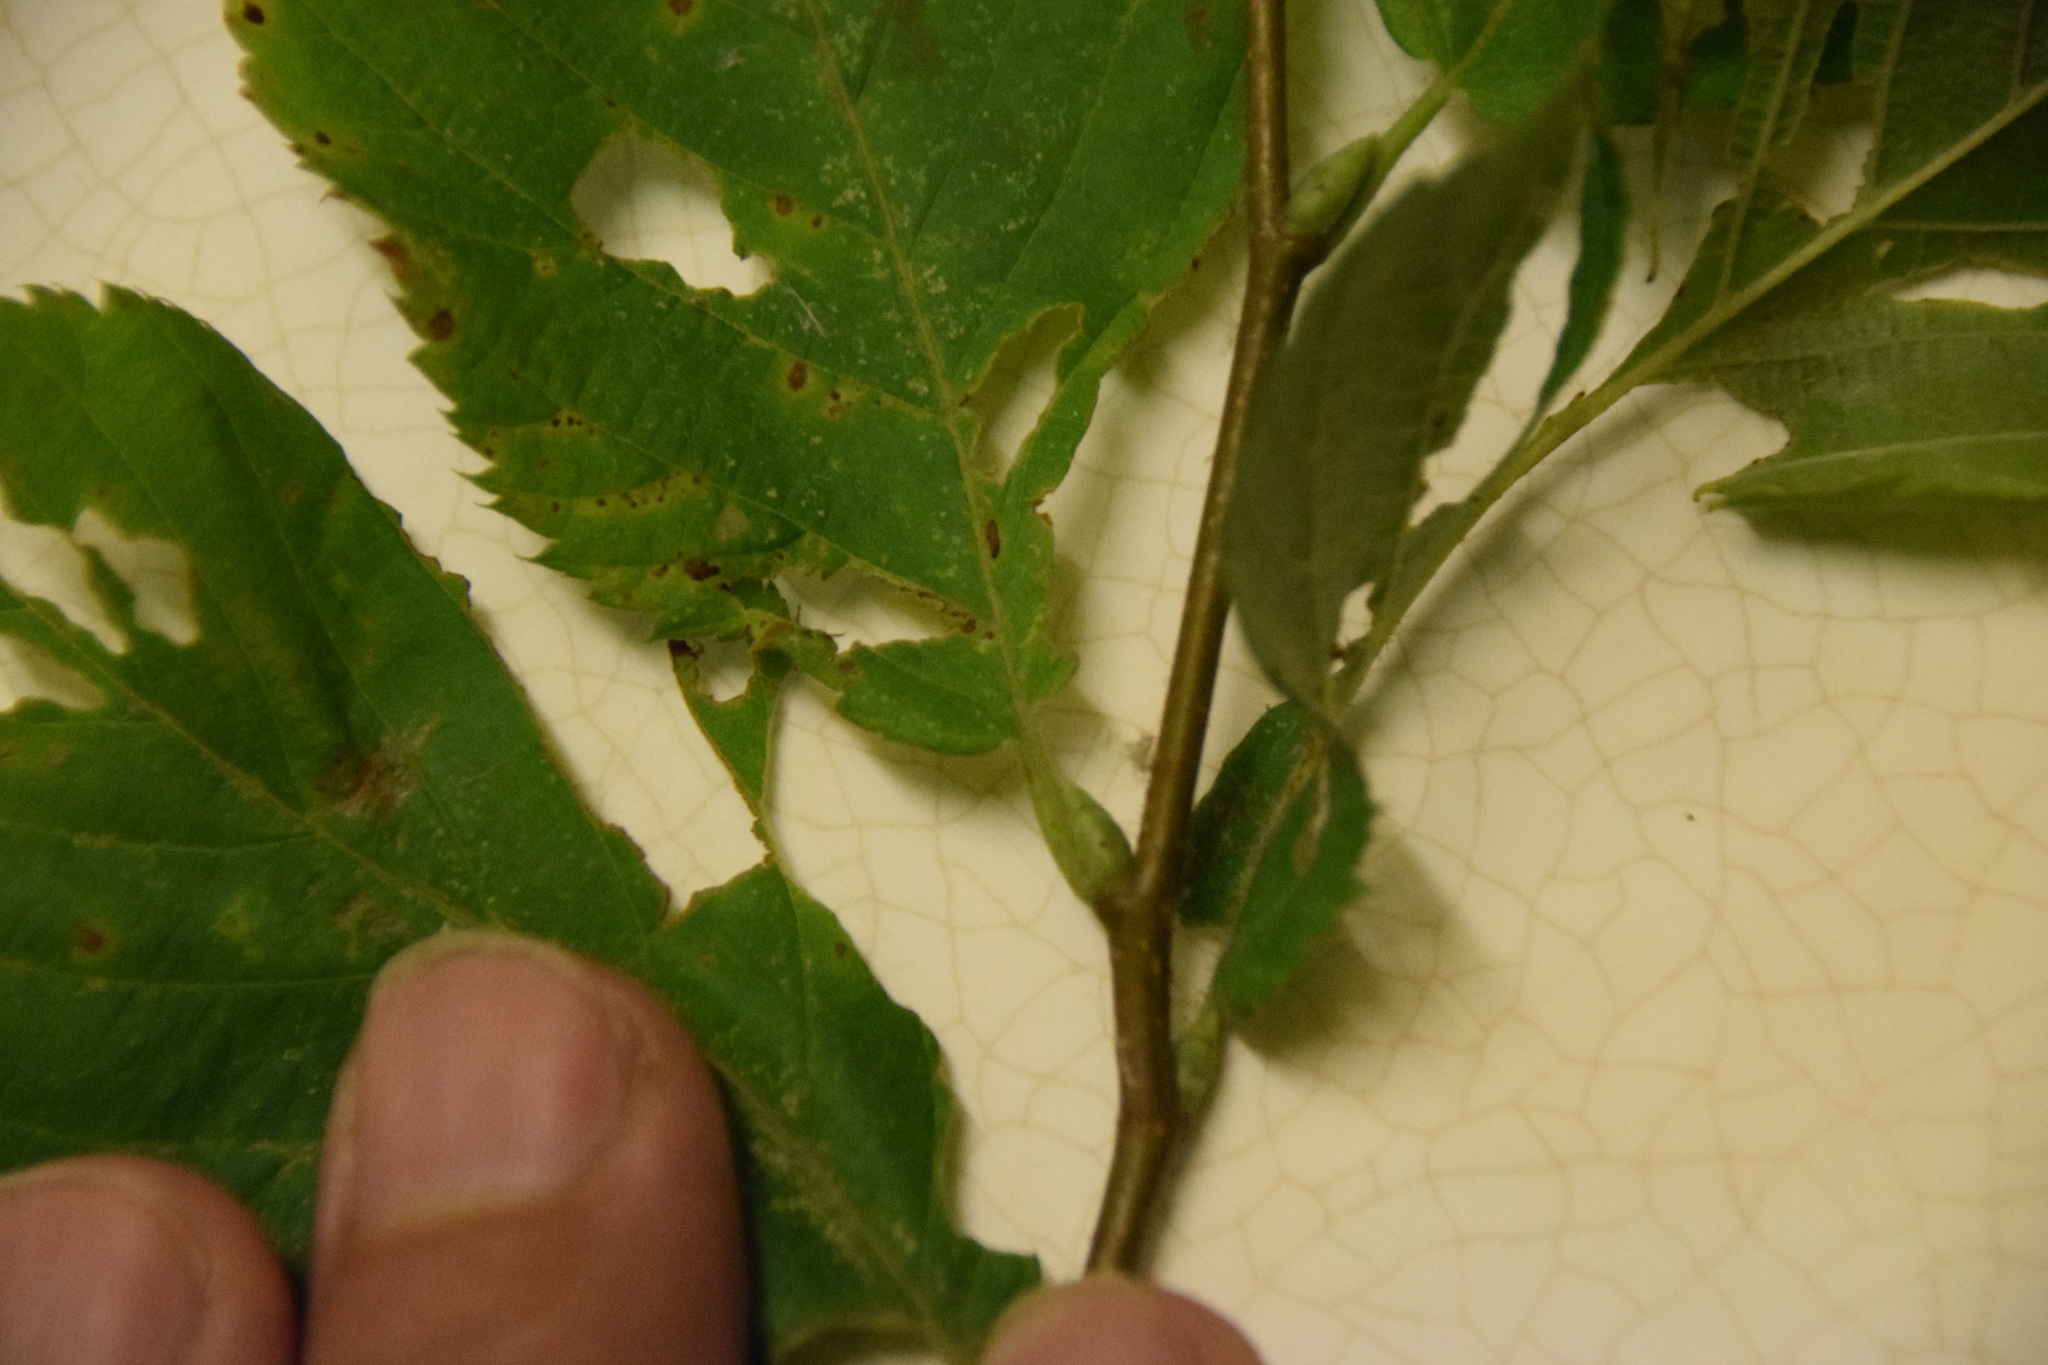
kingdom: Plantae
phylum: Tracheophyta
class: Magnoliopsida
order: Fagales
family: Betulaceae
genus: Ostrya
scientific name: Ostrya virginiana
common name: Ironwood
